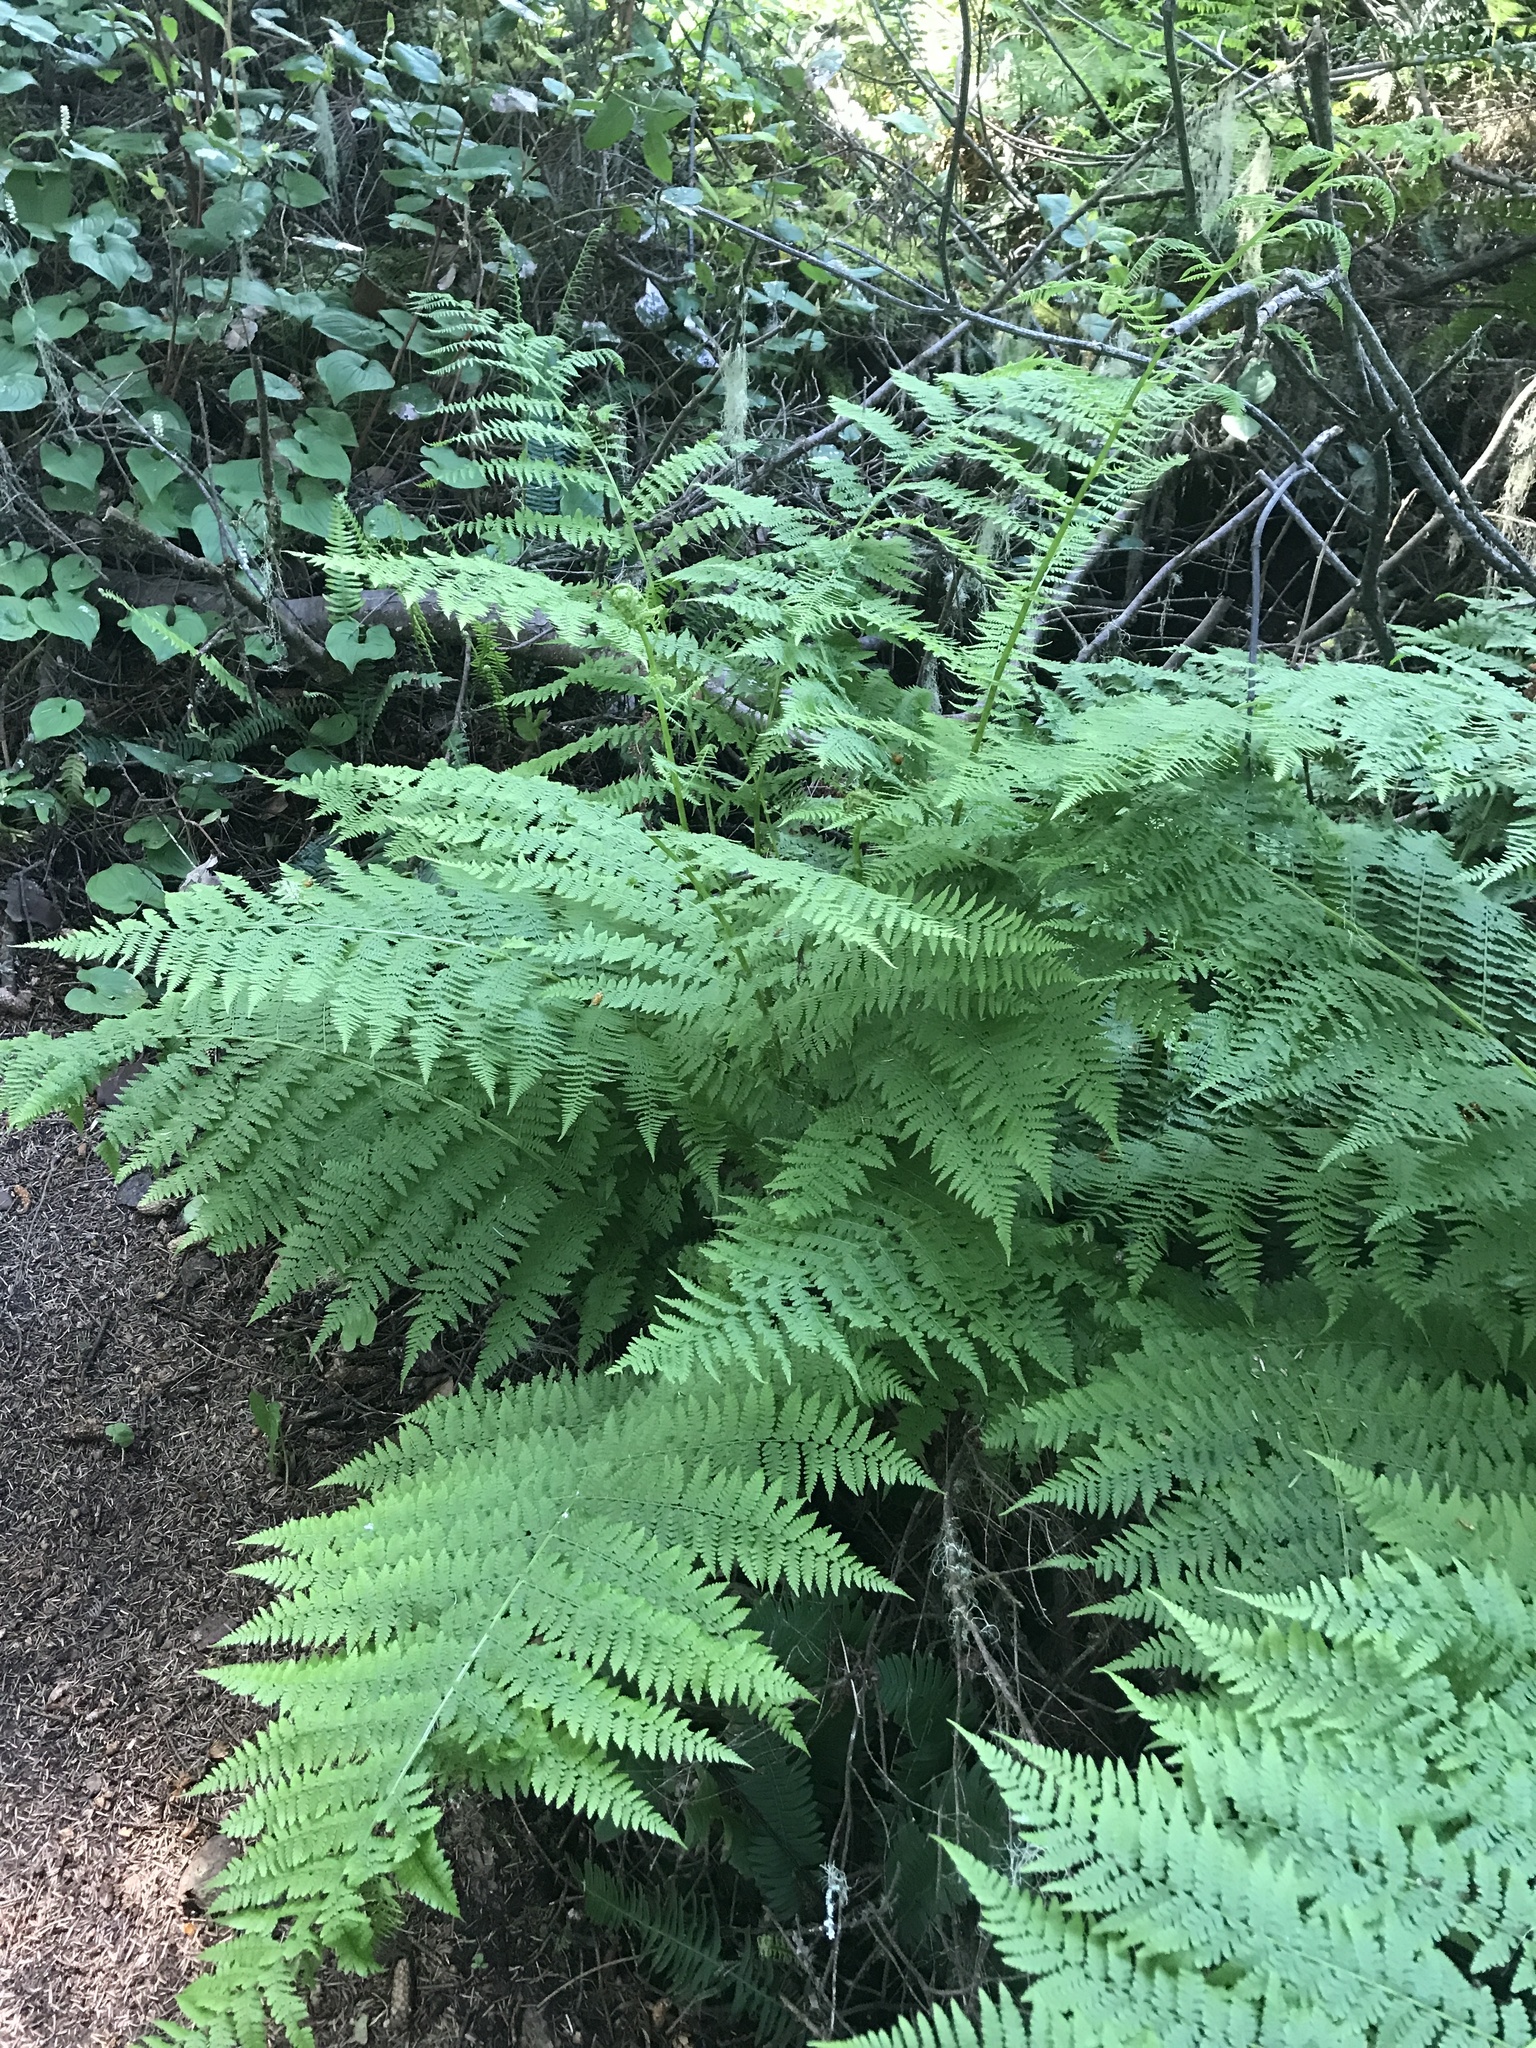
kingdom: Plantae
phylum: Tracheophyta
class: Polypodiopsida
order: Polypodiales
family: Athyriaceae
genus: Athyrium
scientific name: Athyrium filix-femina
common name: Lady fern
